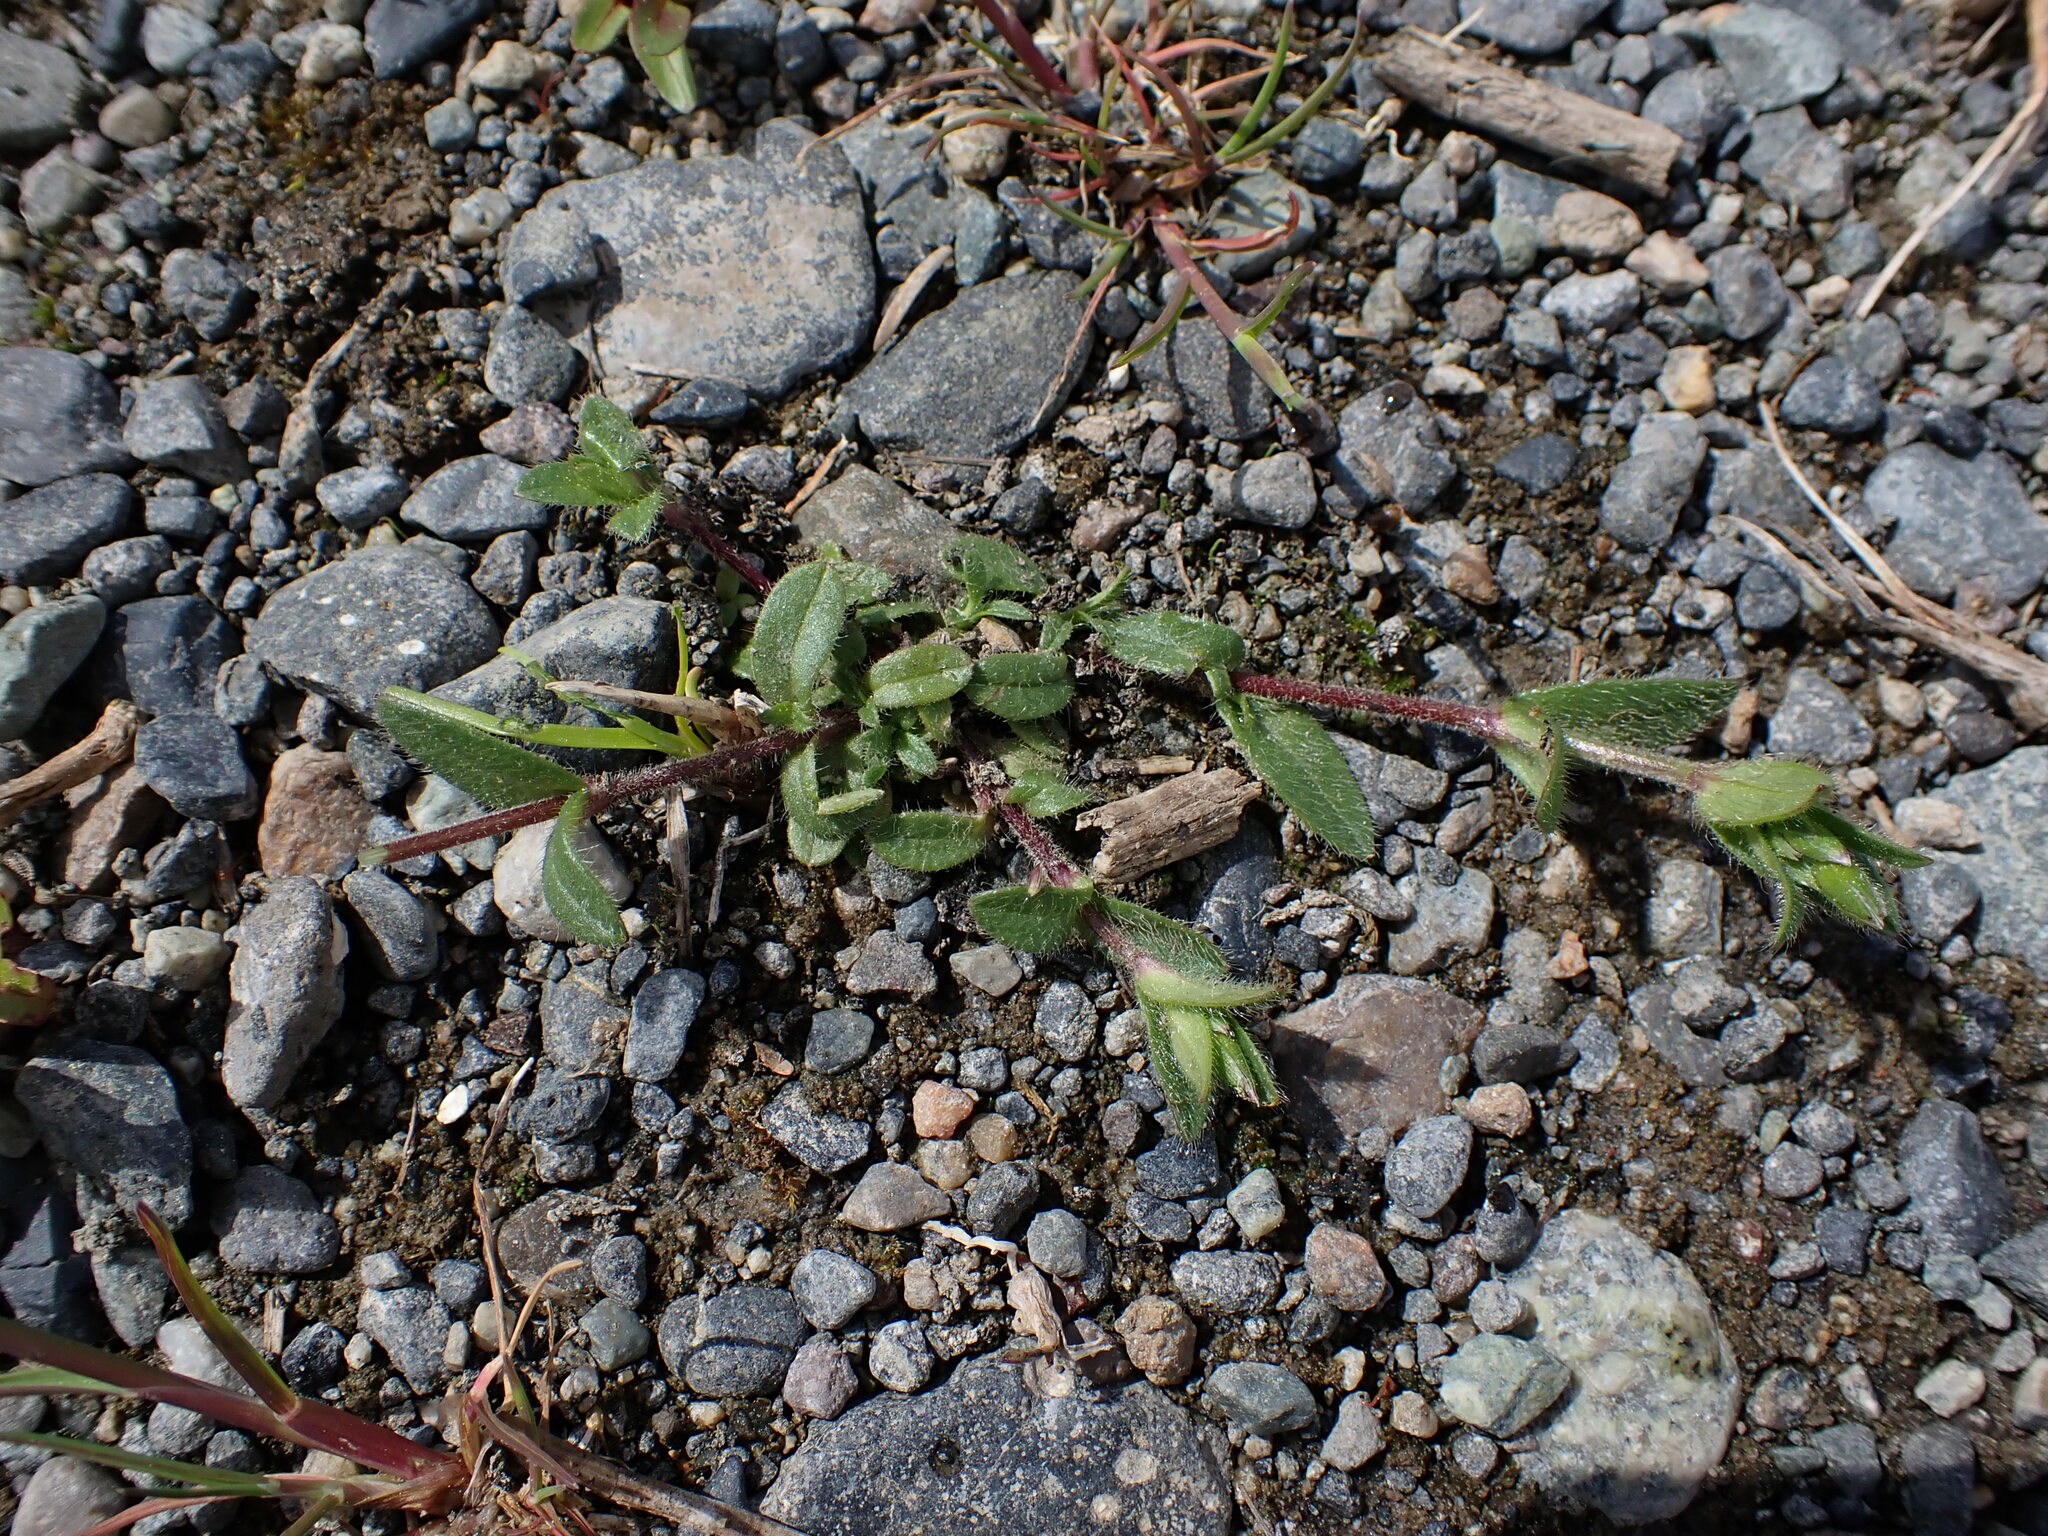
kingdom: Plantae
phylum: Tracheophyta
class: Magnoliopsida
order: Caryophyllales
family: Caryophyllaceae
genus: Cerastium
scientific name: Cerastium fontanum
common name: Common mouse-ear
